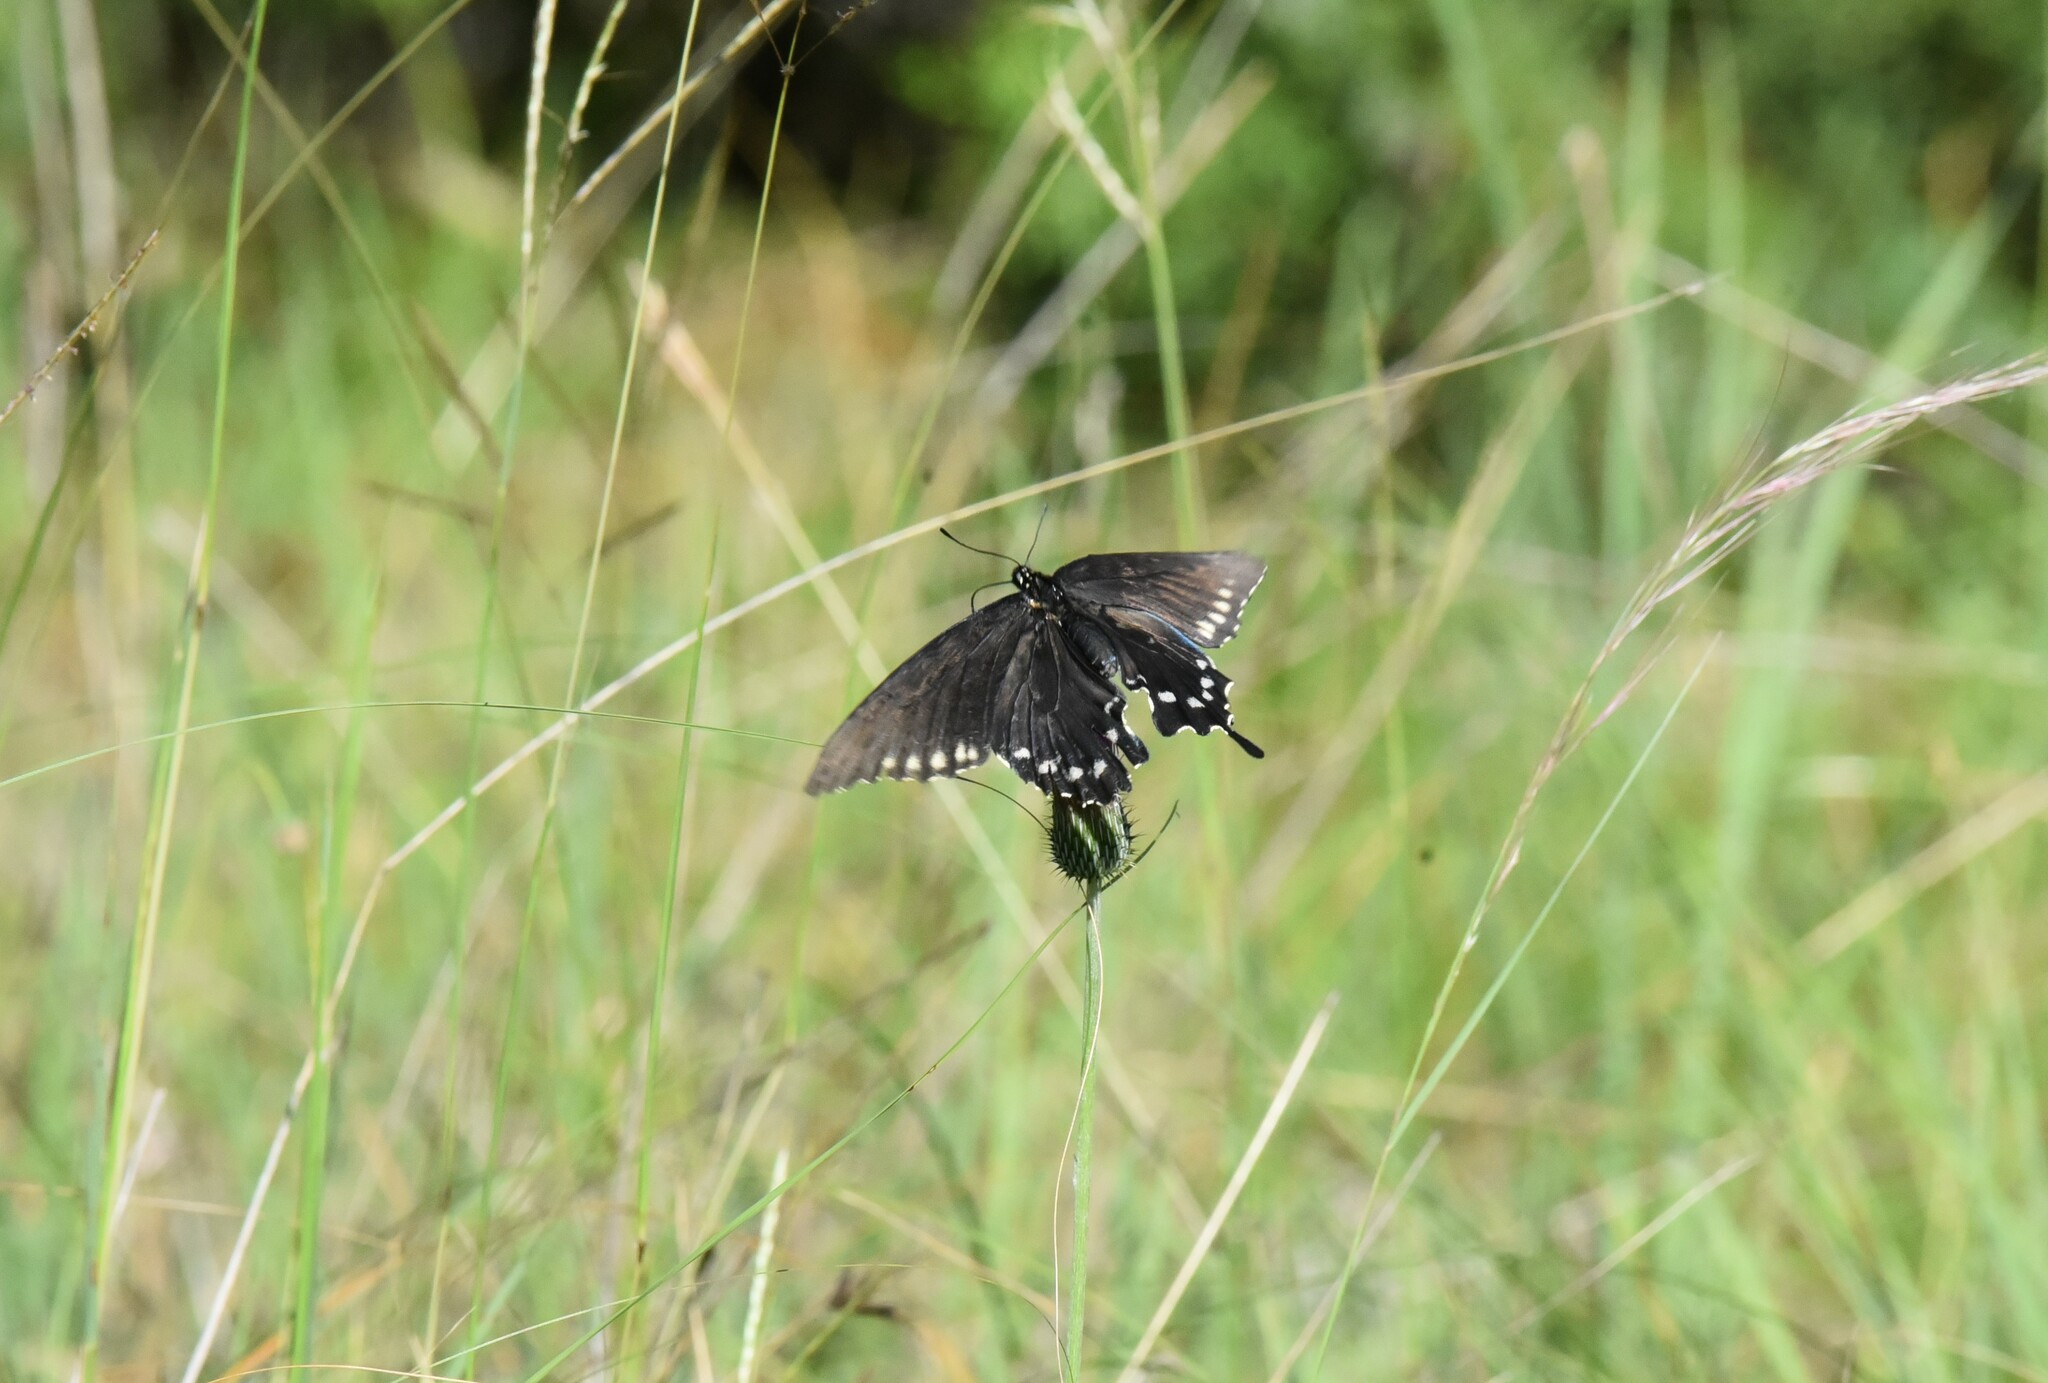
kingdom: Animalia
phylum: Arthropoda
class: Insecta
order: Lepidoptera
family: Papilionidae
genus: Battus
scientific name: Battus philenor
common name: Pipevine swallowtail
